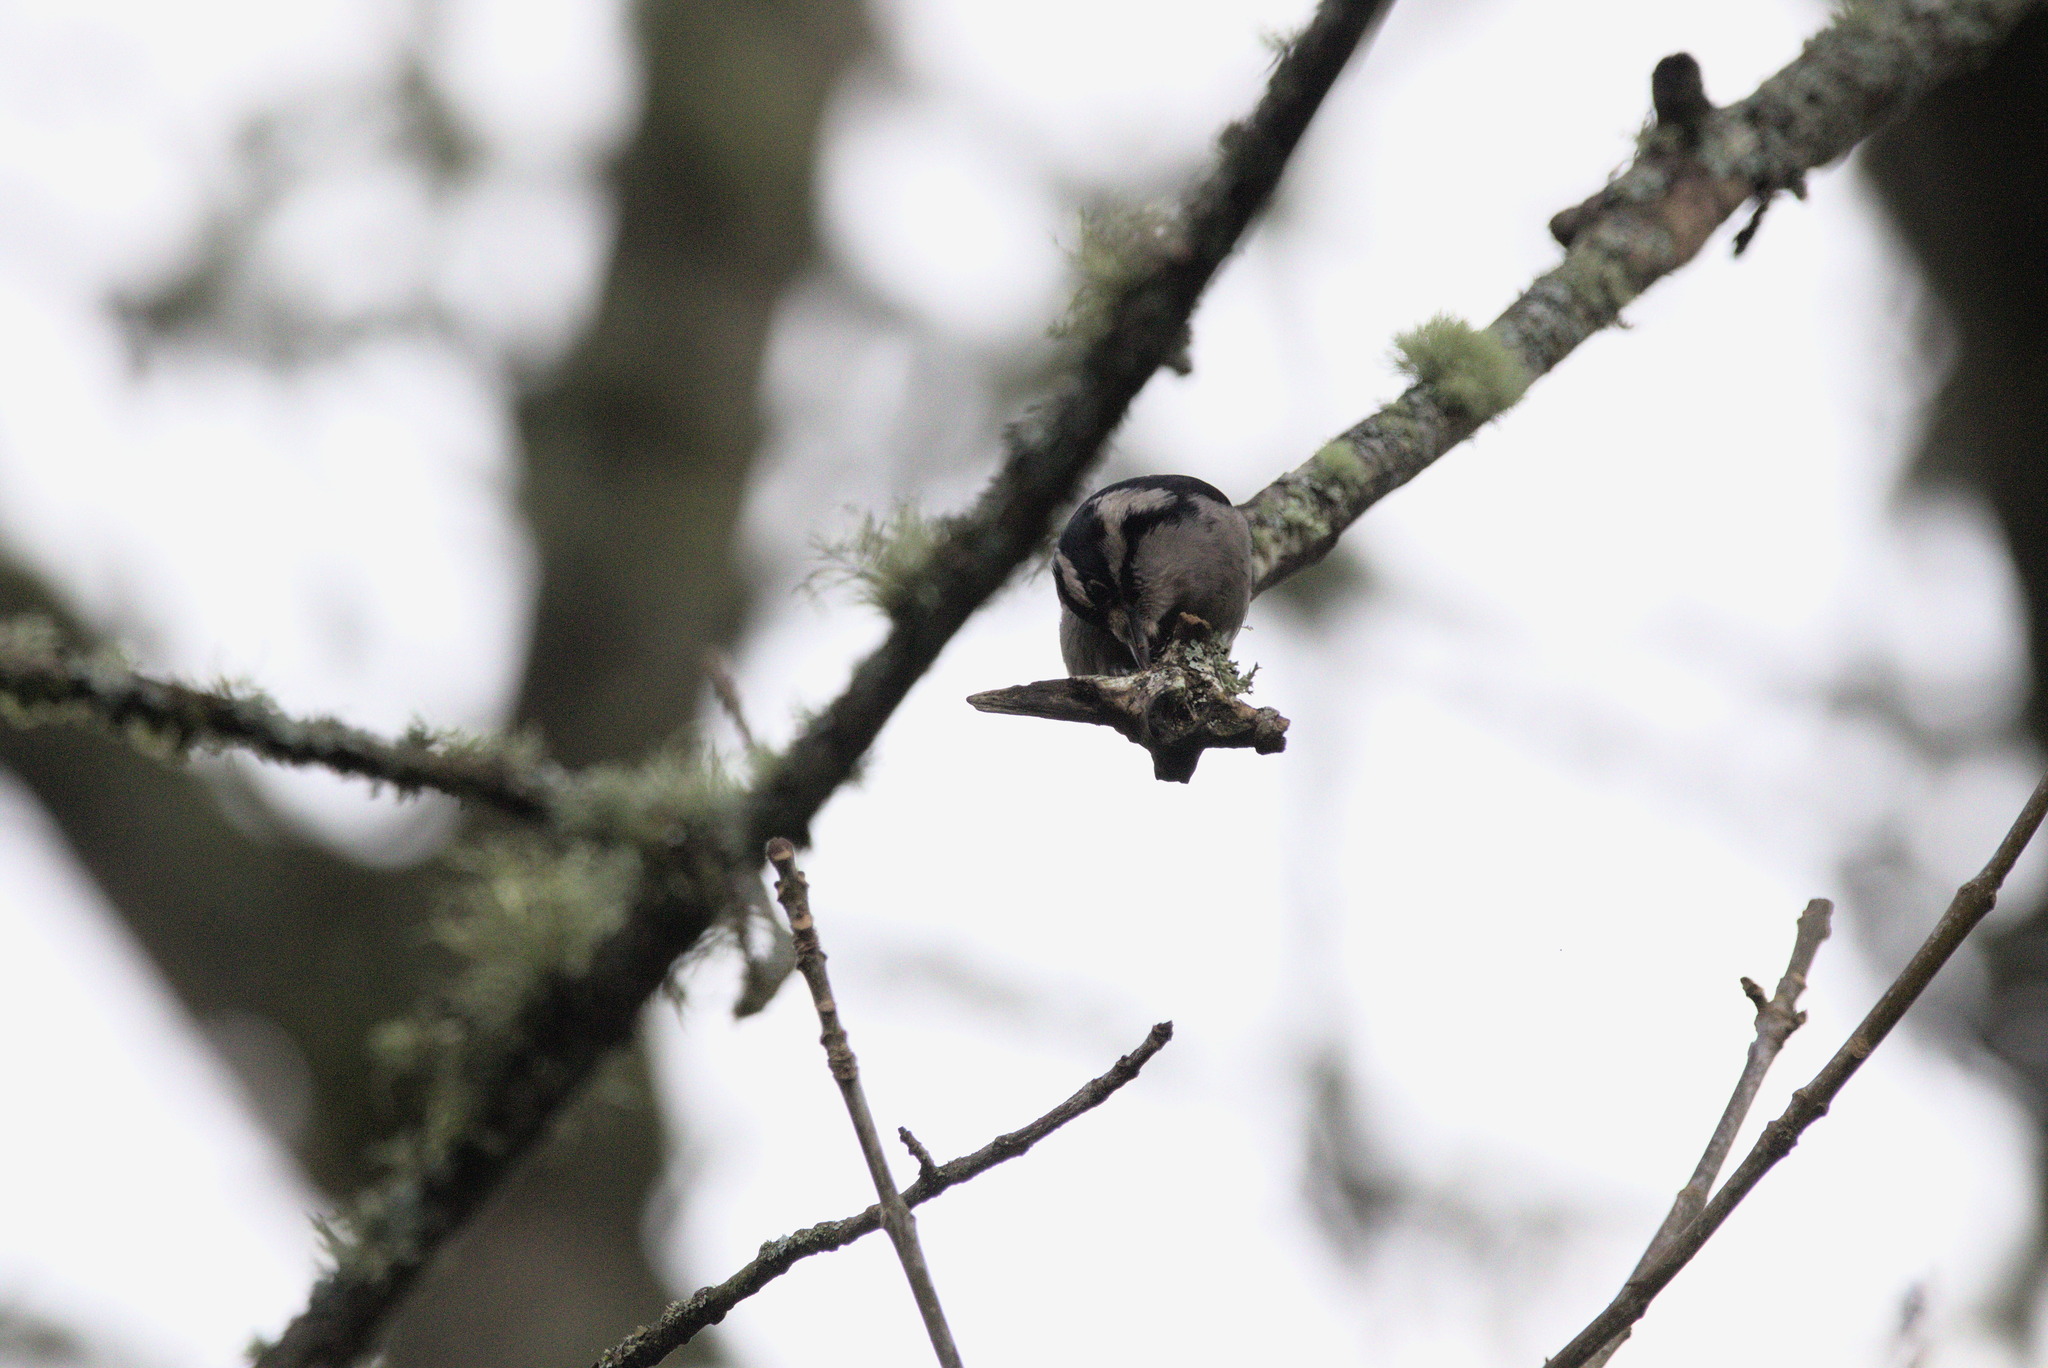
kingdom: Animalia
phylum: Chordata
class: Aves
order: Piciformes
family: Picidae
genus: Dryobates
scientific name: Dryobates pubescens
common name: Downy woodpecker
